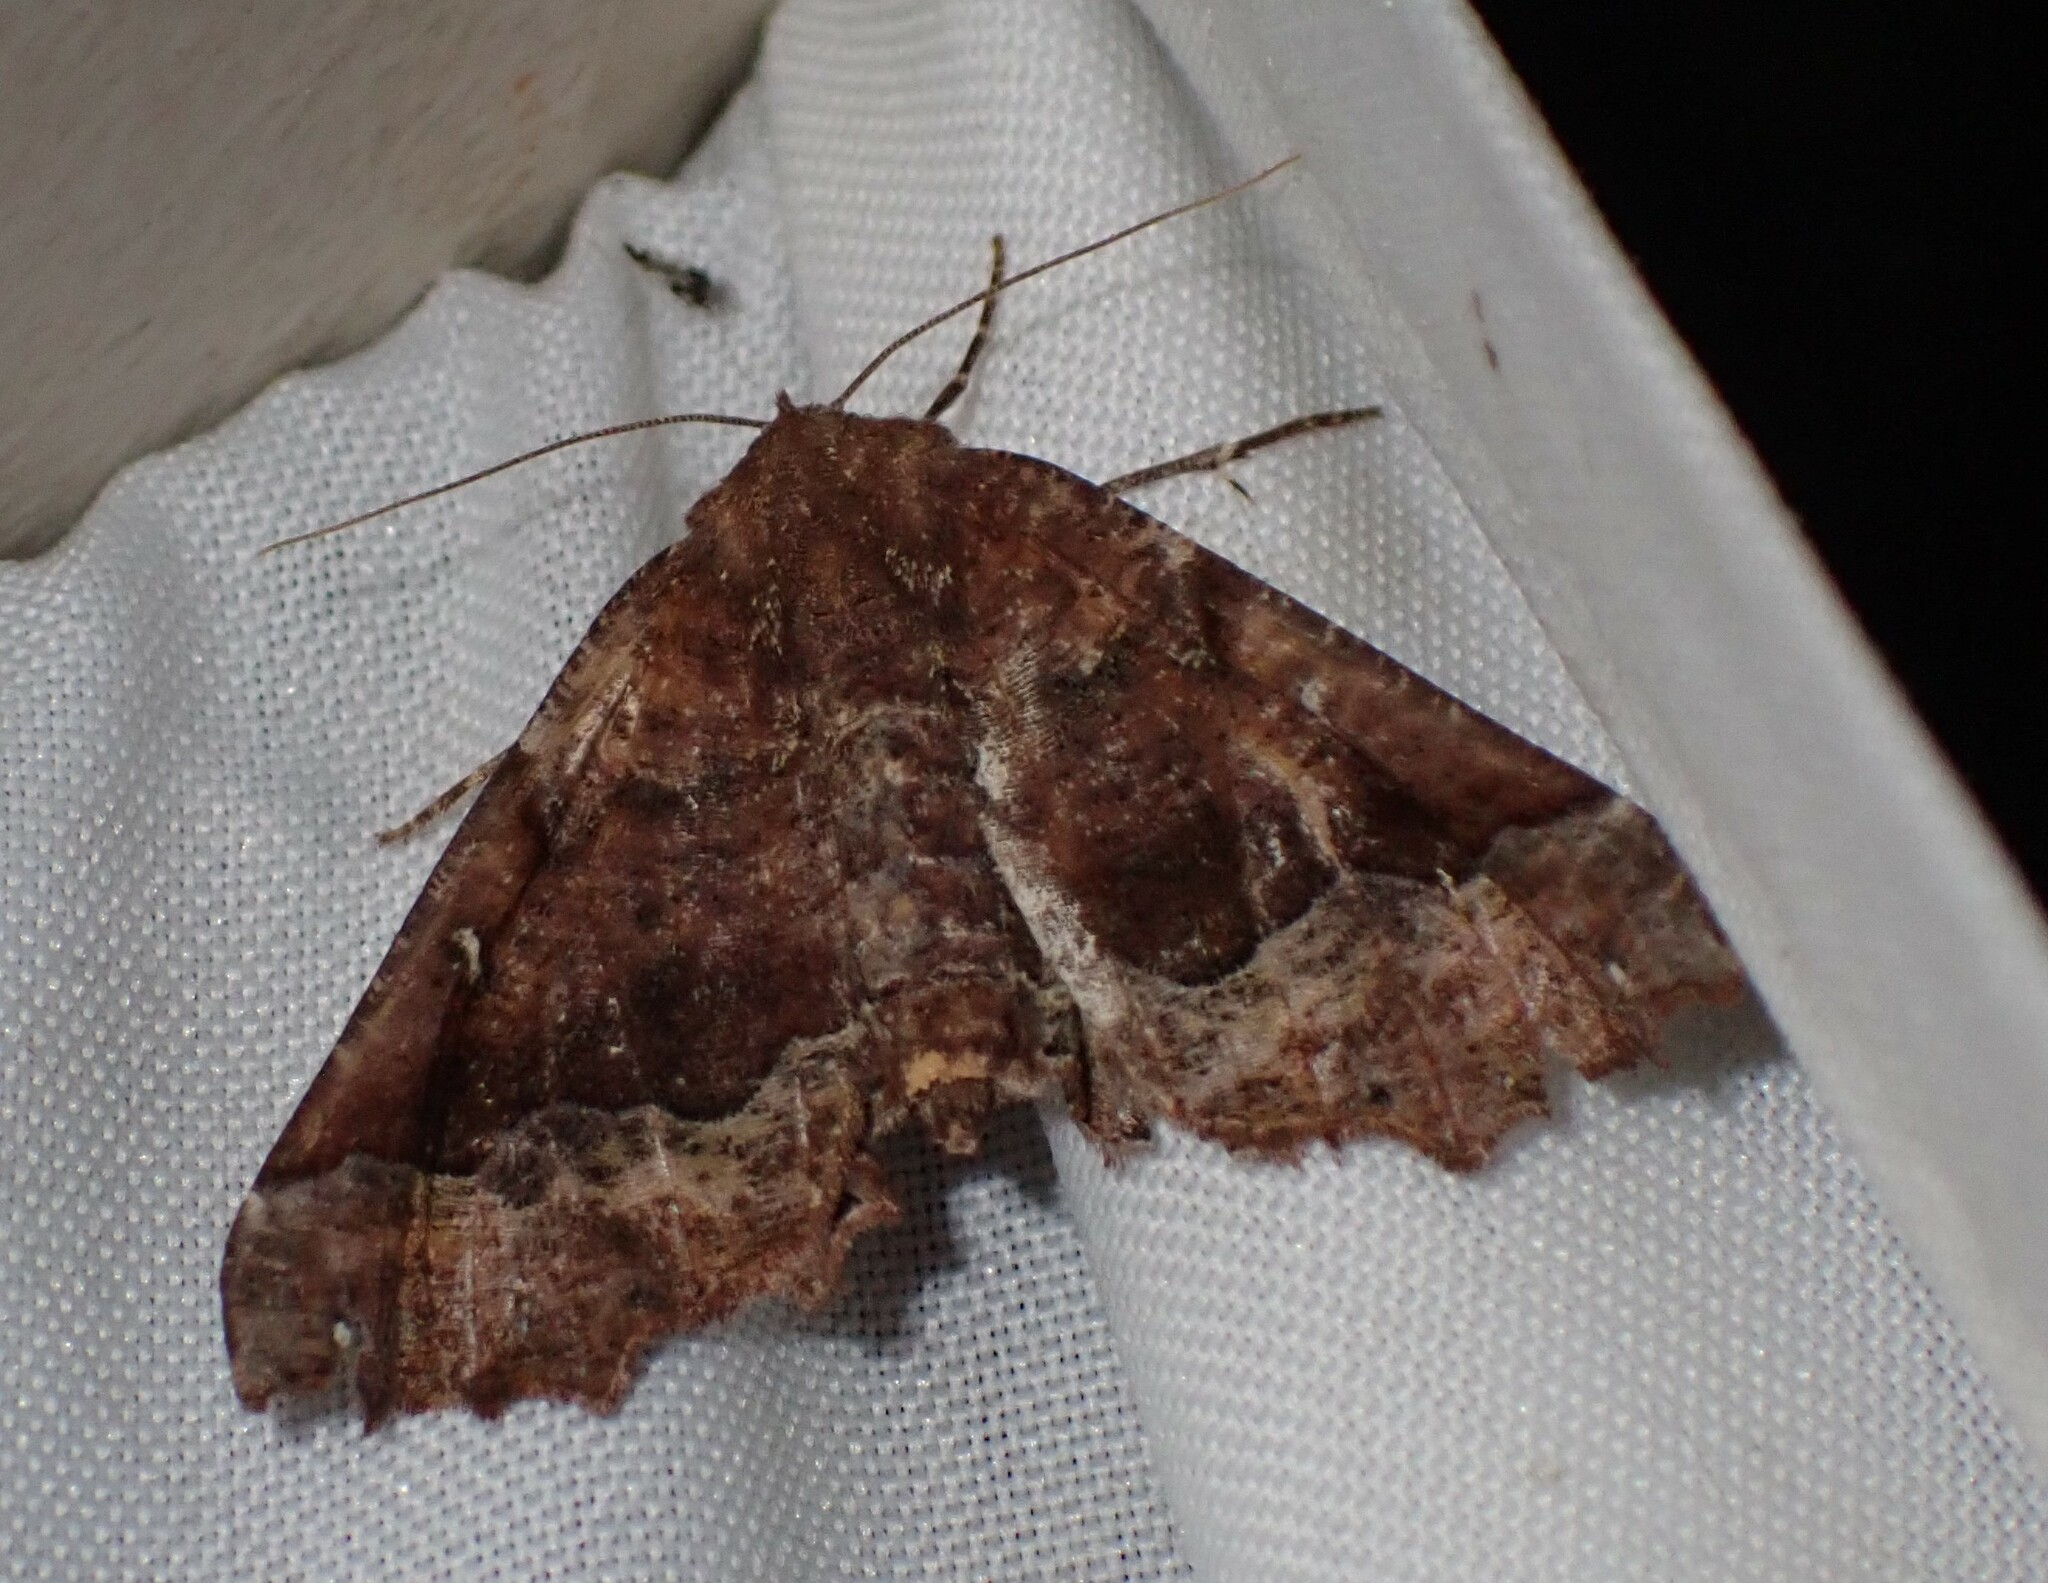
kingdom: Animalia
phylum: Arthropoda
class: Insecta
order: Lepidoptera
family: Geometridae
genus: Pero
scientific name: Pero morrisonaria
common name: Morrison's pero
